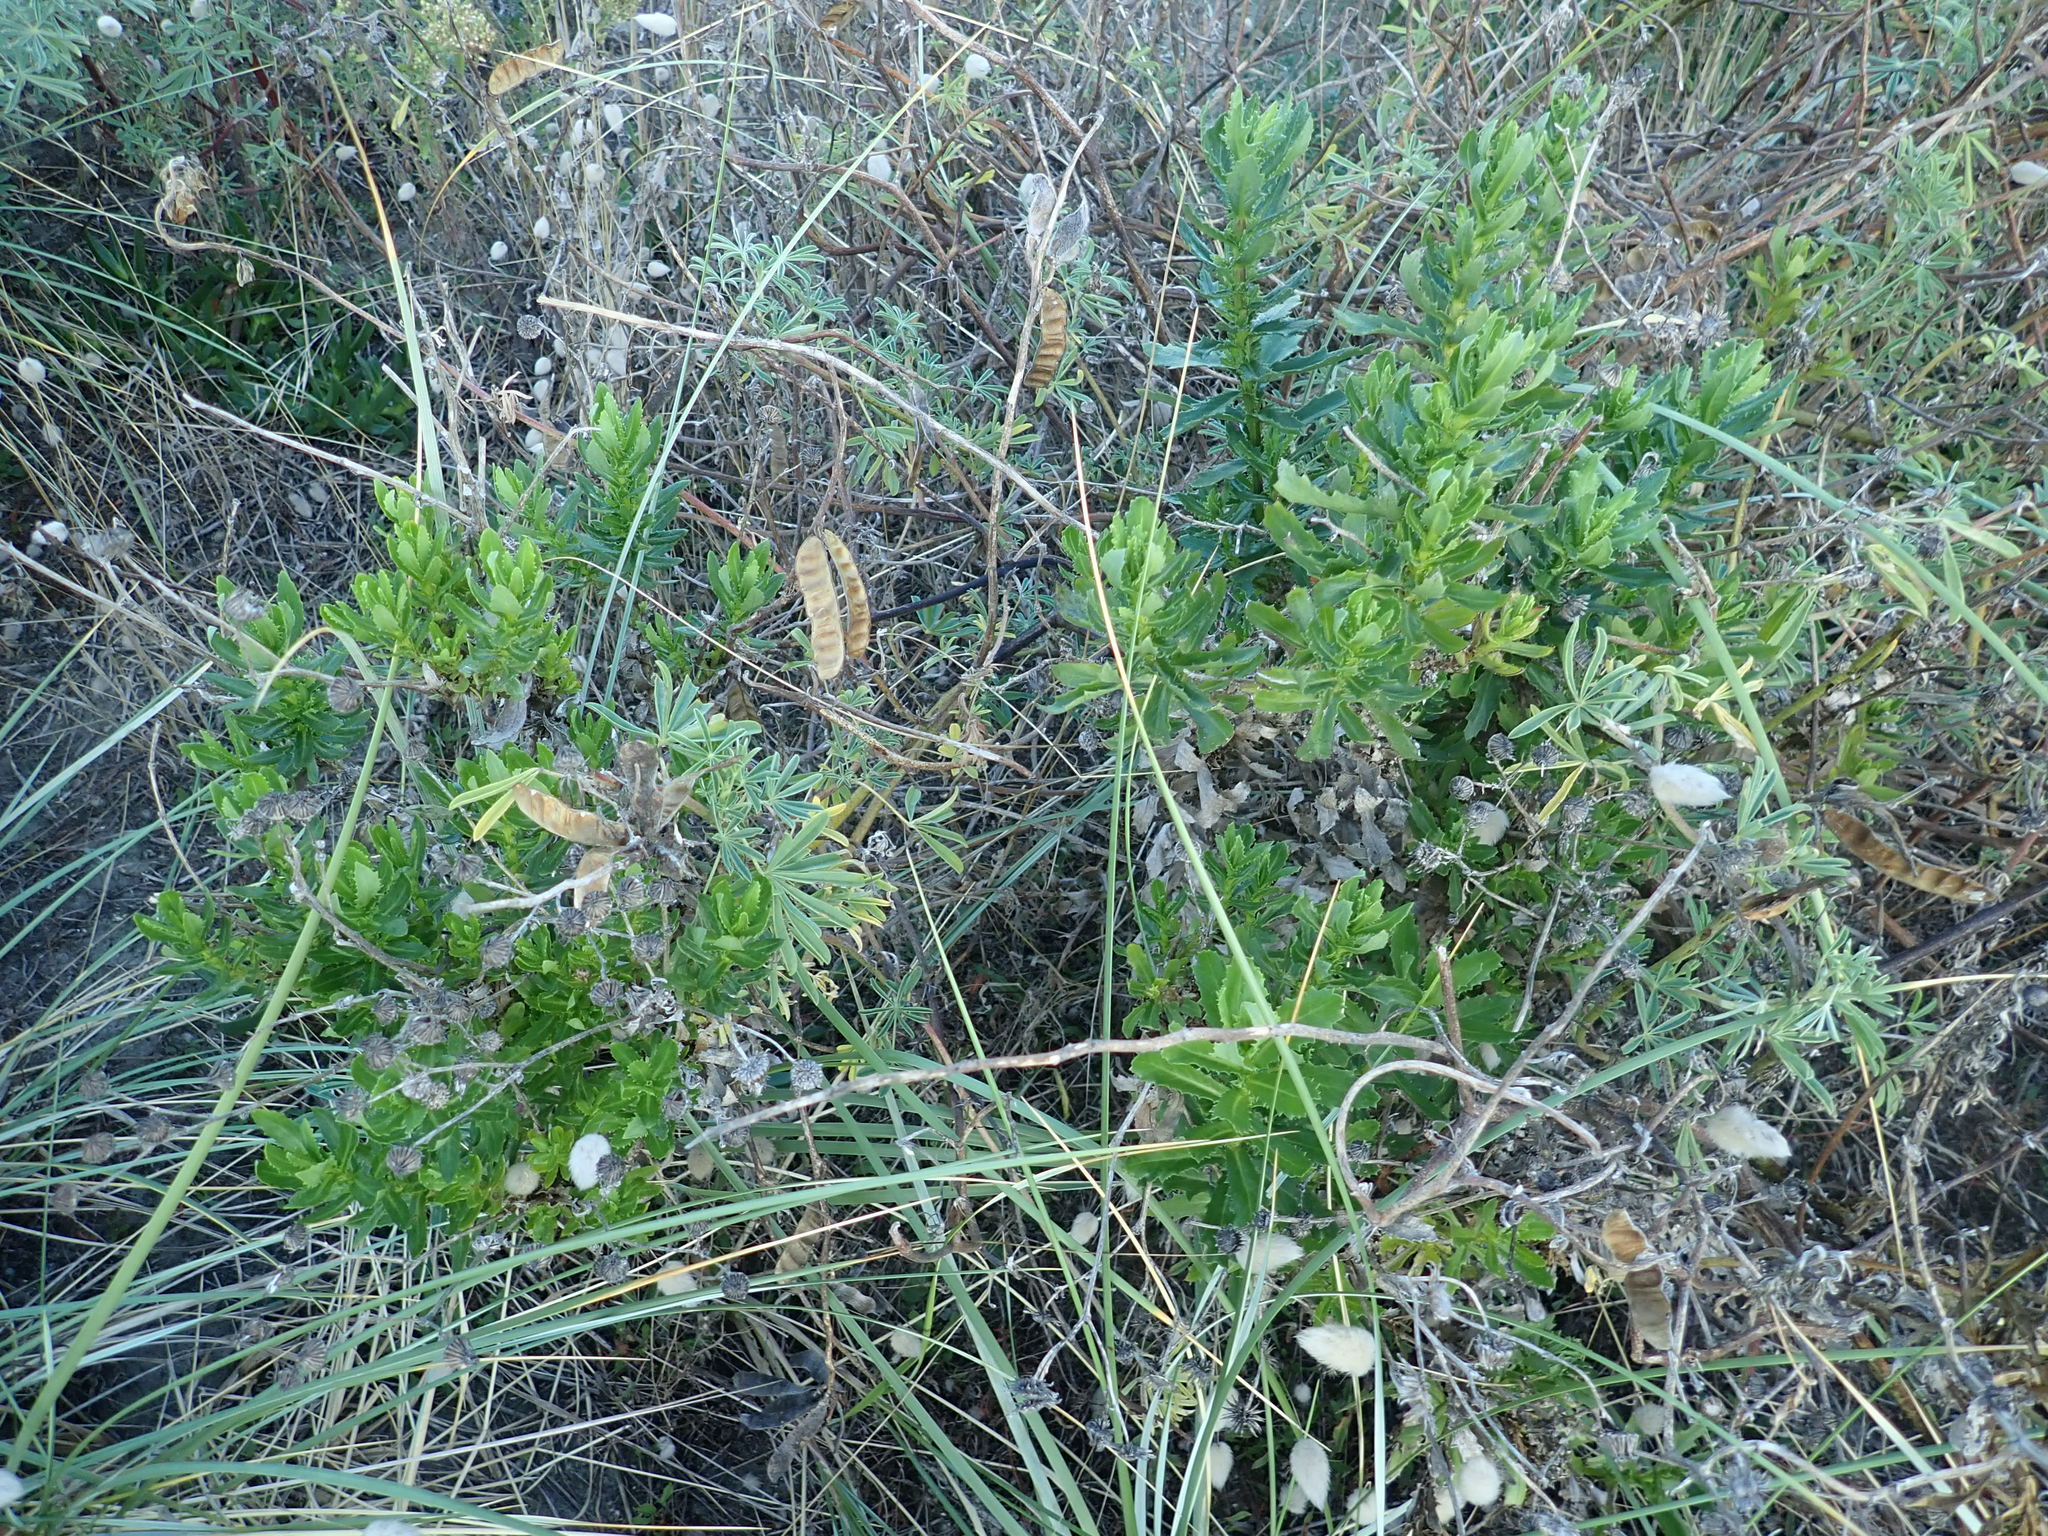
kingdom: Plantae
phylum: Tracheophyta
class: Magnoliopsida
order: Asterales
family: Asteraceae
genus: Senecio
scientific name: Senecio glastifolius
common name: Woad-leaved ragwort
